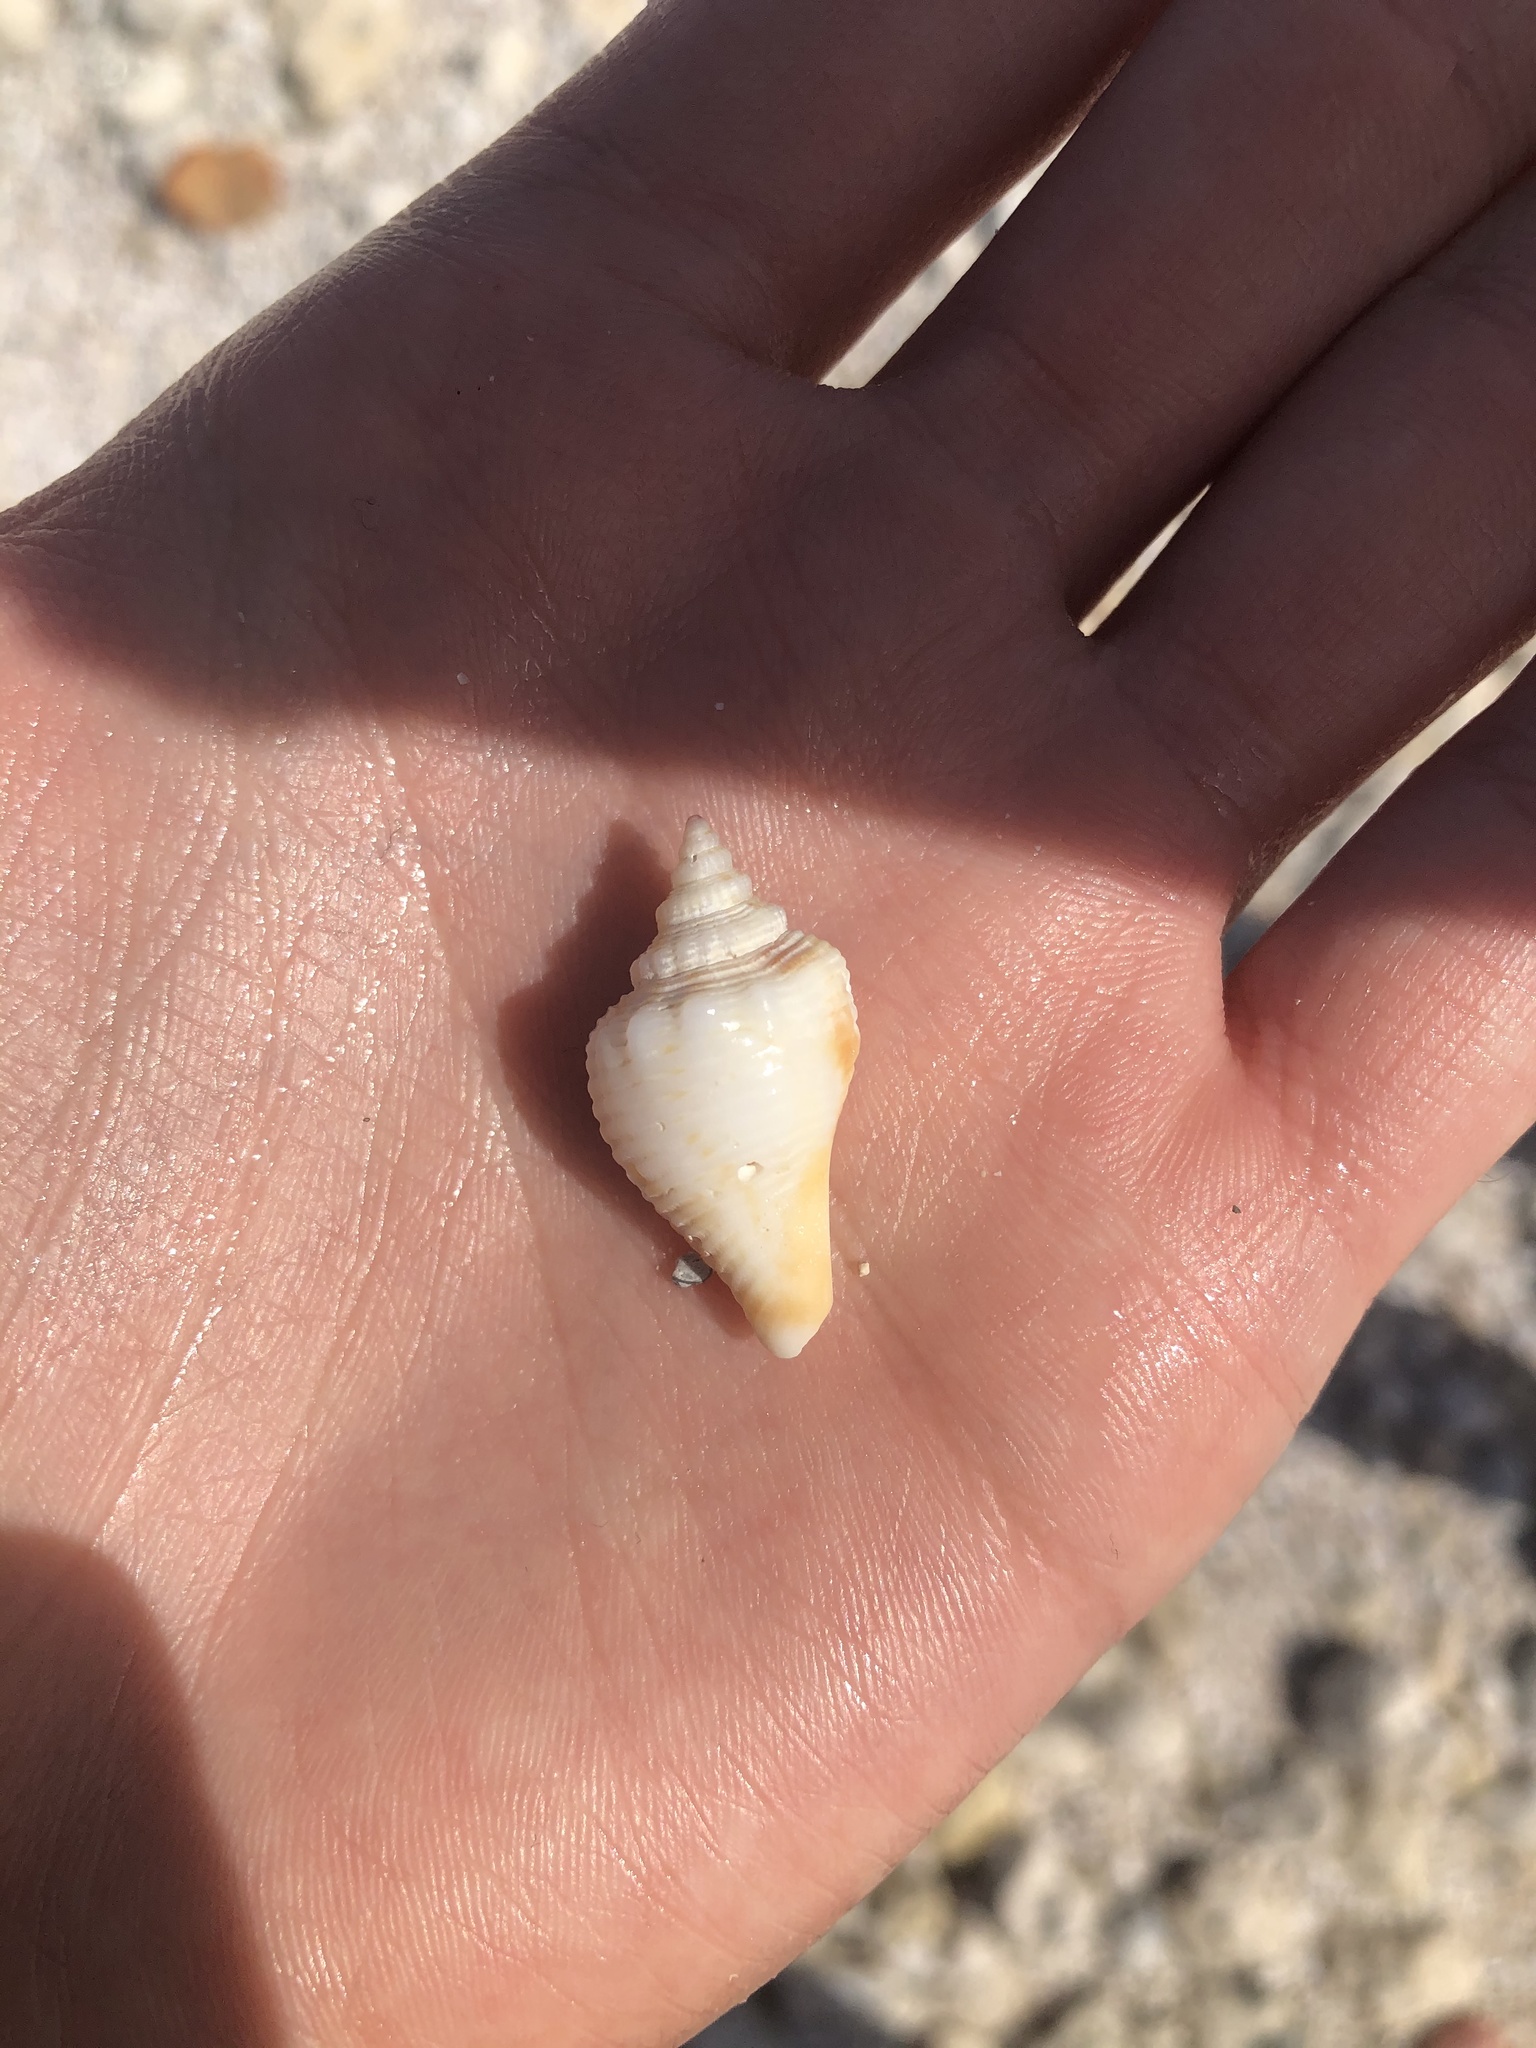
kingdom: Animalia
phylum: Mollusca
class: Gastropoda
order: Littorinimorpha
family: Strombidae
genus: Strombus
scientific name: Strombus alatus
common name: Florida fighting conch
